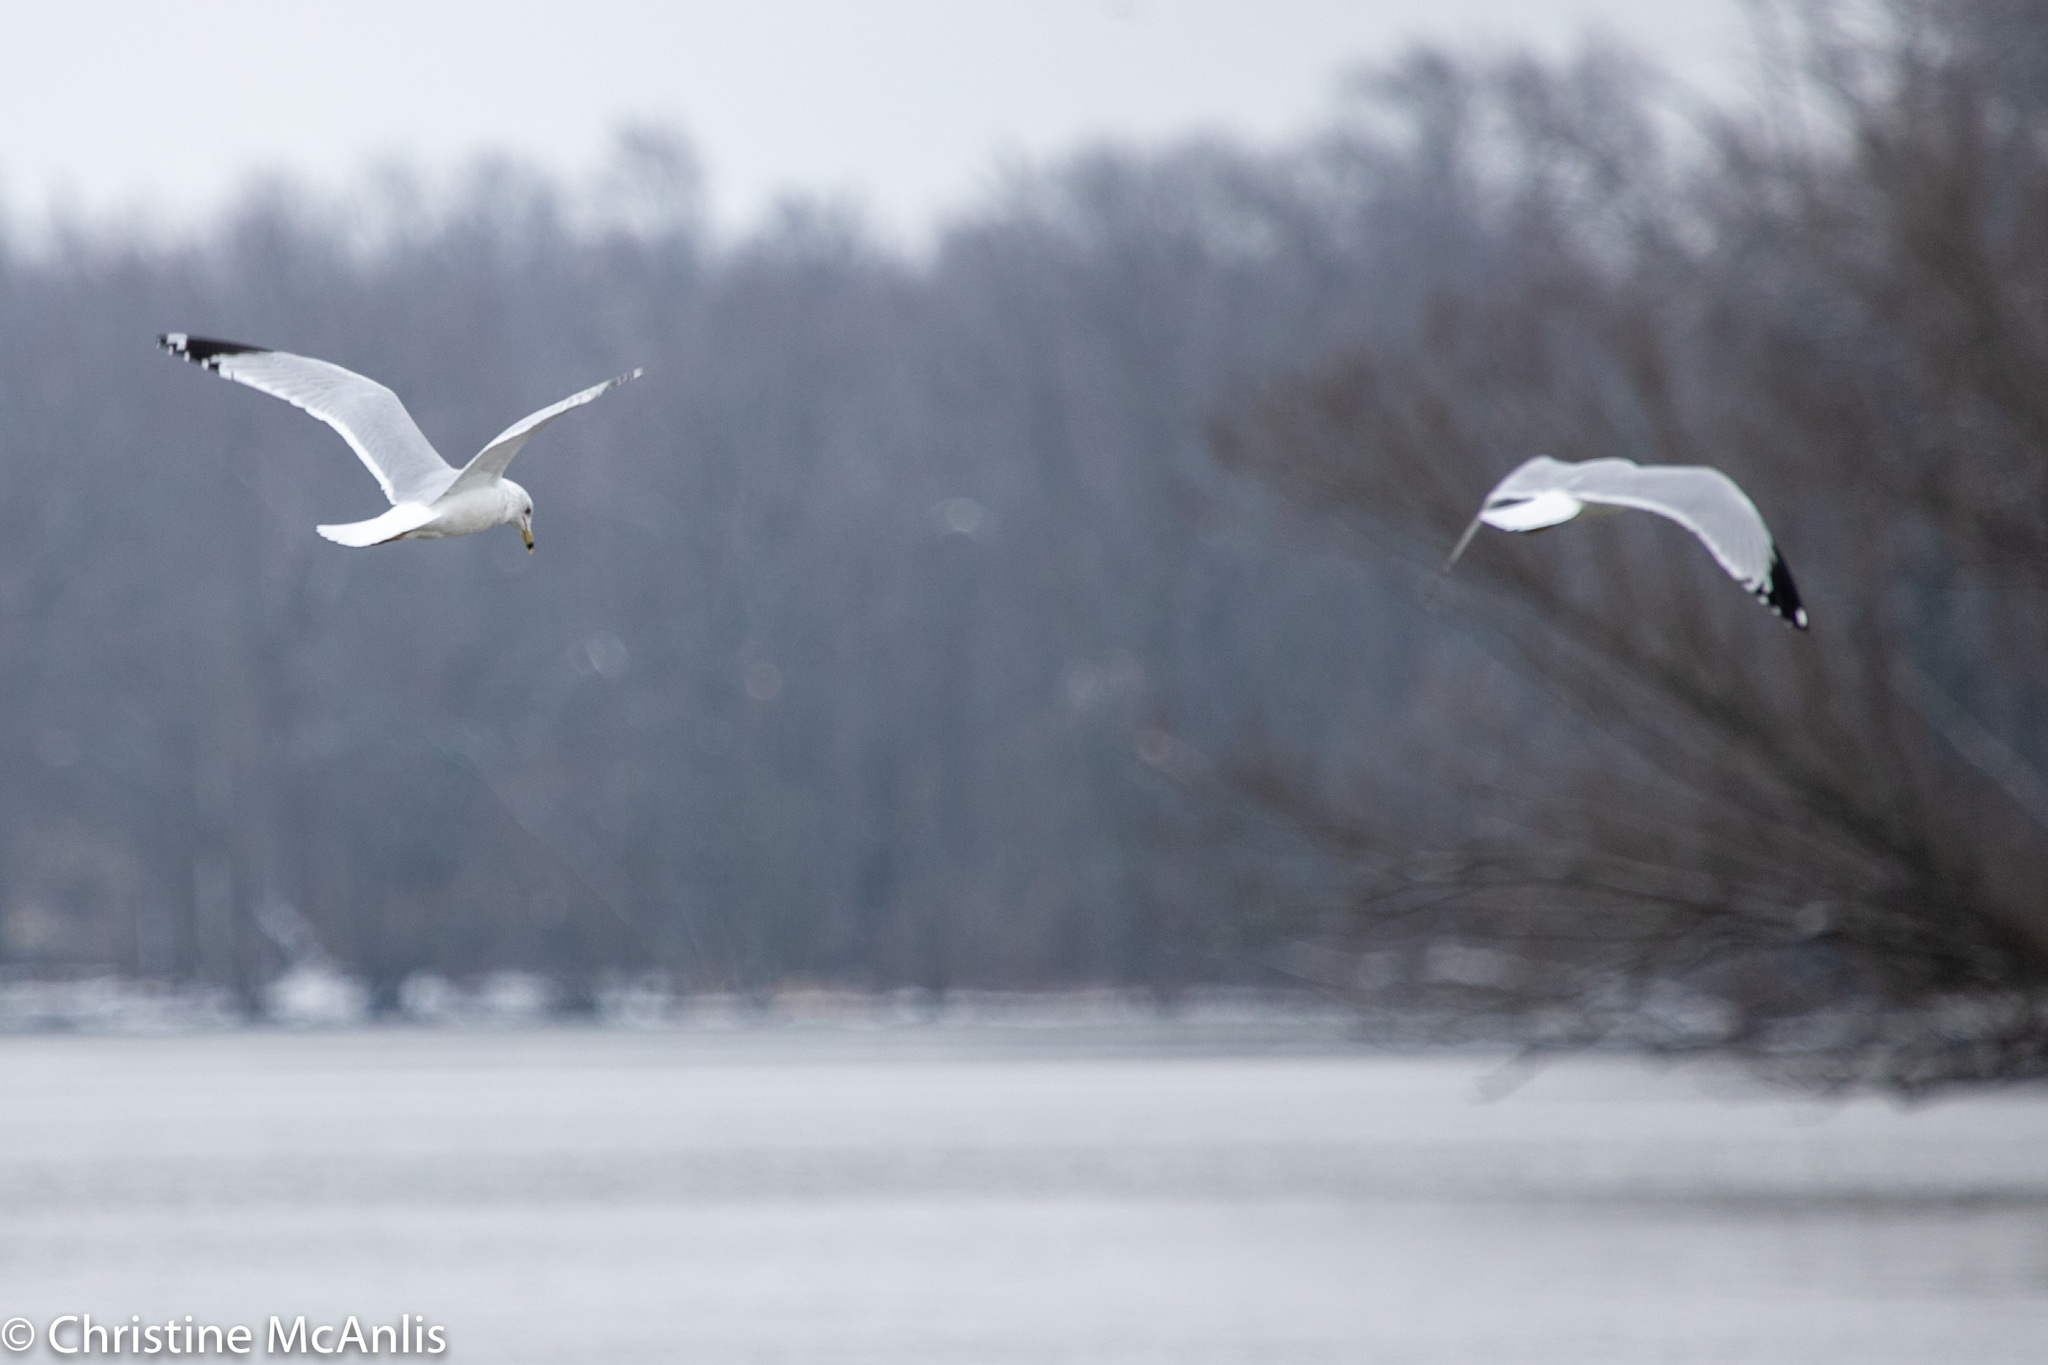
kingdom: Animalia
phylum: Chordata
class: Aves
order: Charadriiformes
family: Laridae
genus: Larus
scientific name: Larus delawarensis
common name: Ring-billed gull
